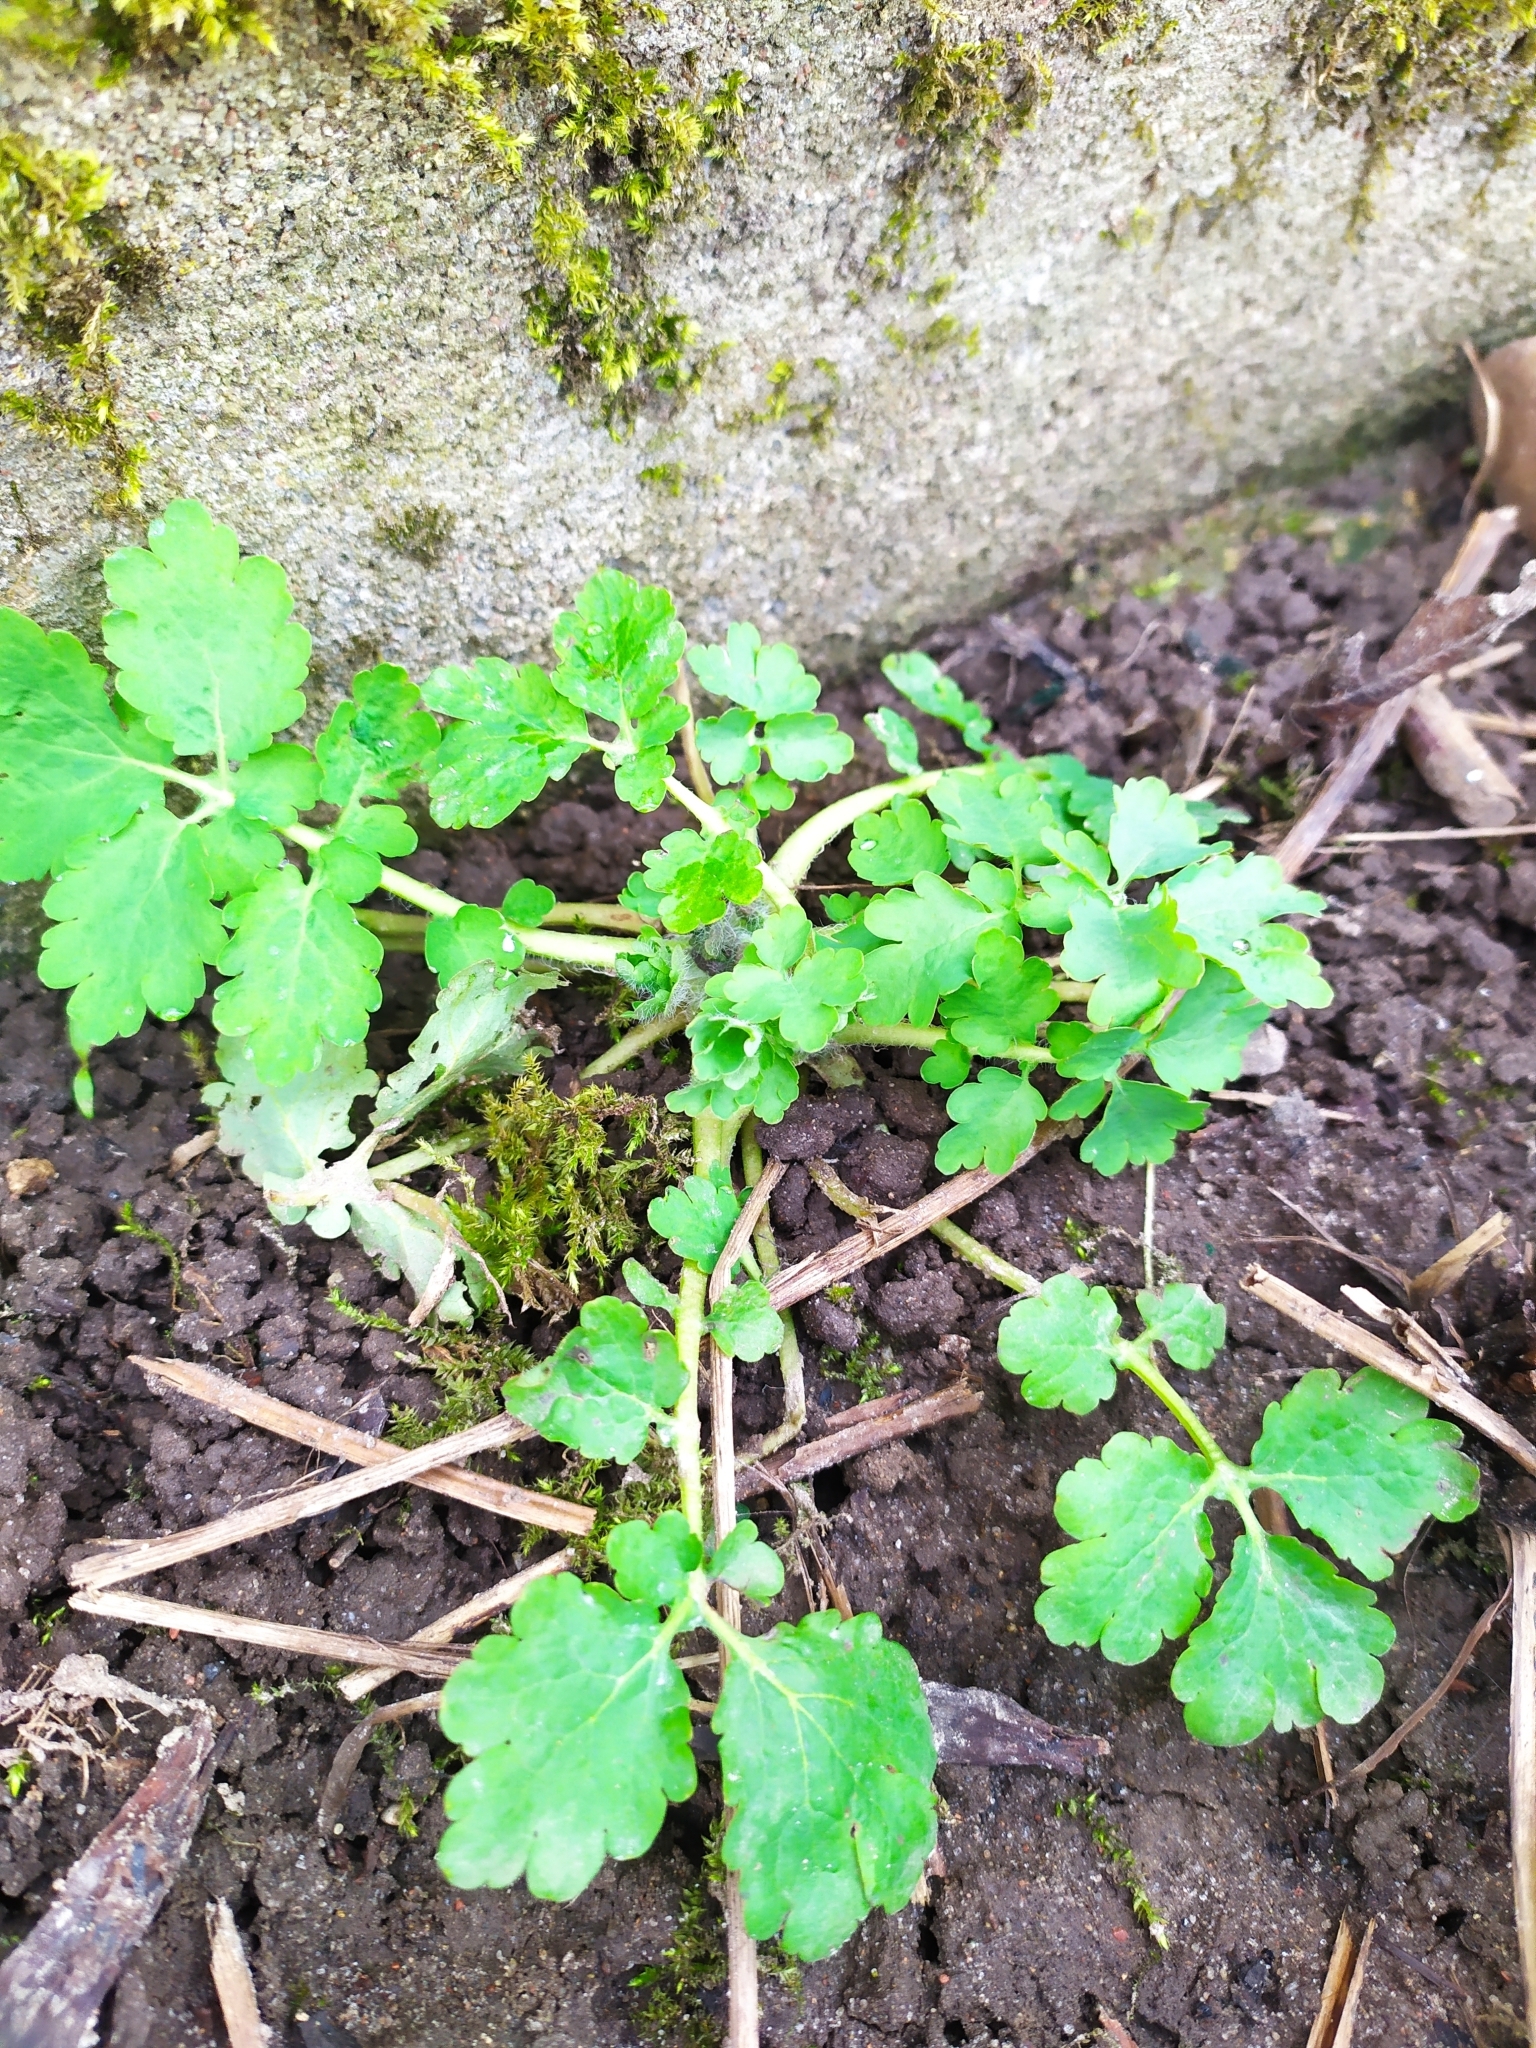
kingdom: Plantae
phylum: Tracheophyta
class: Magnoliopsida
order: Ranunculales
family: Papaveraceae
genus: Chelidonium
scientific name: Chelidonium majus
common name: Greater celandine
